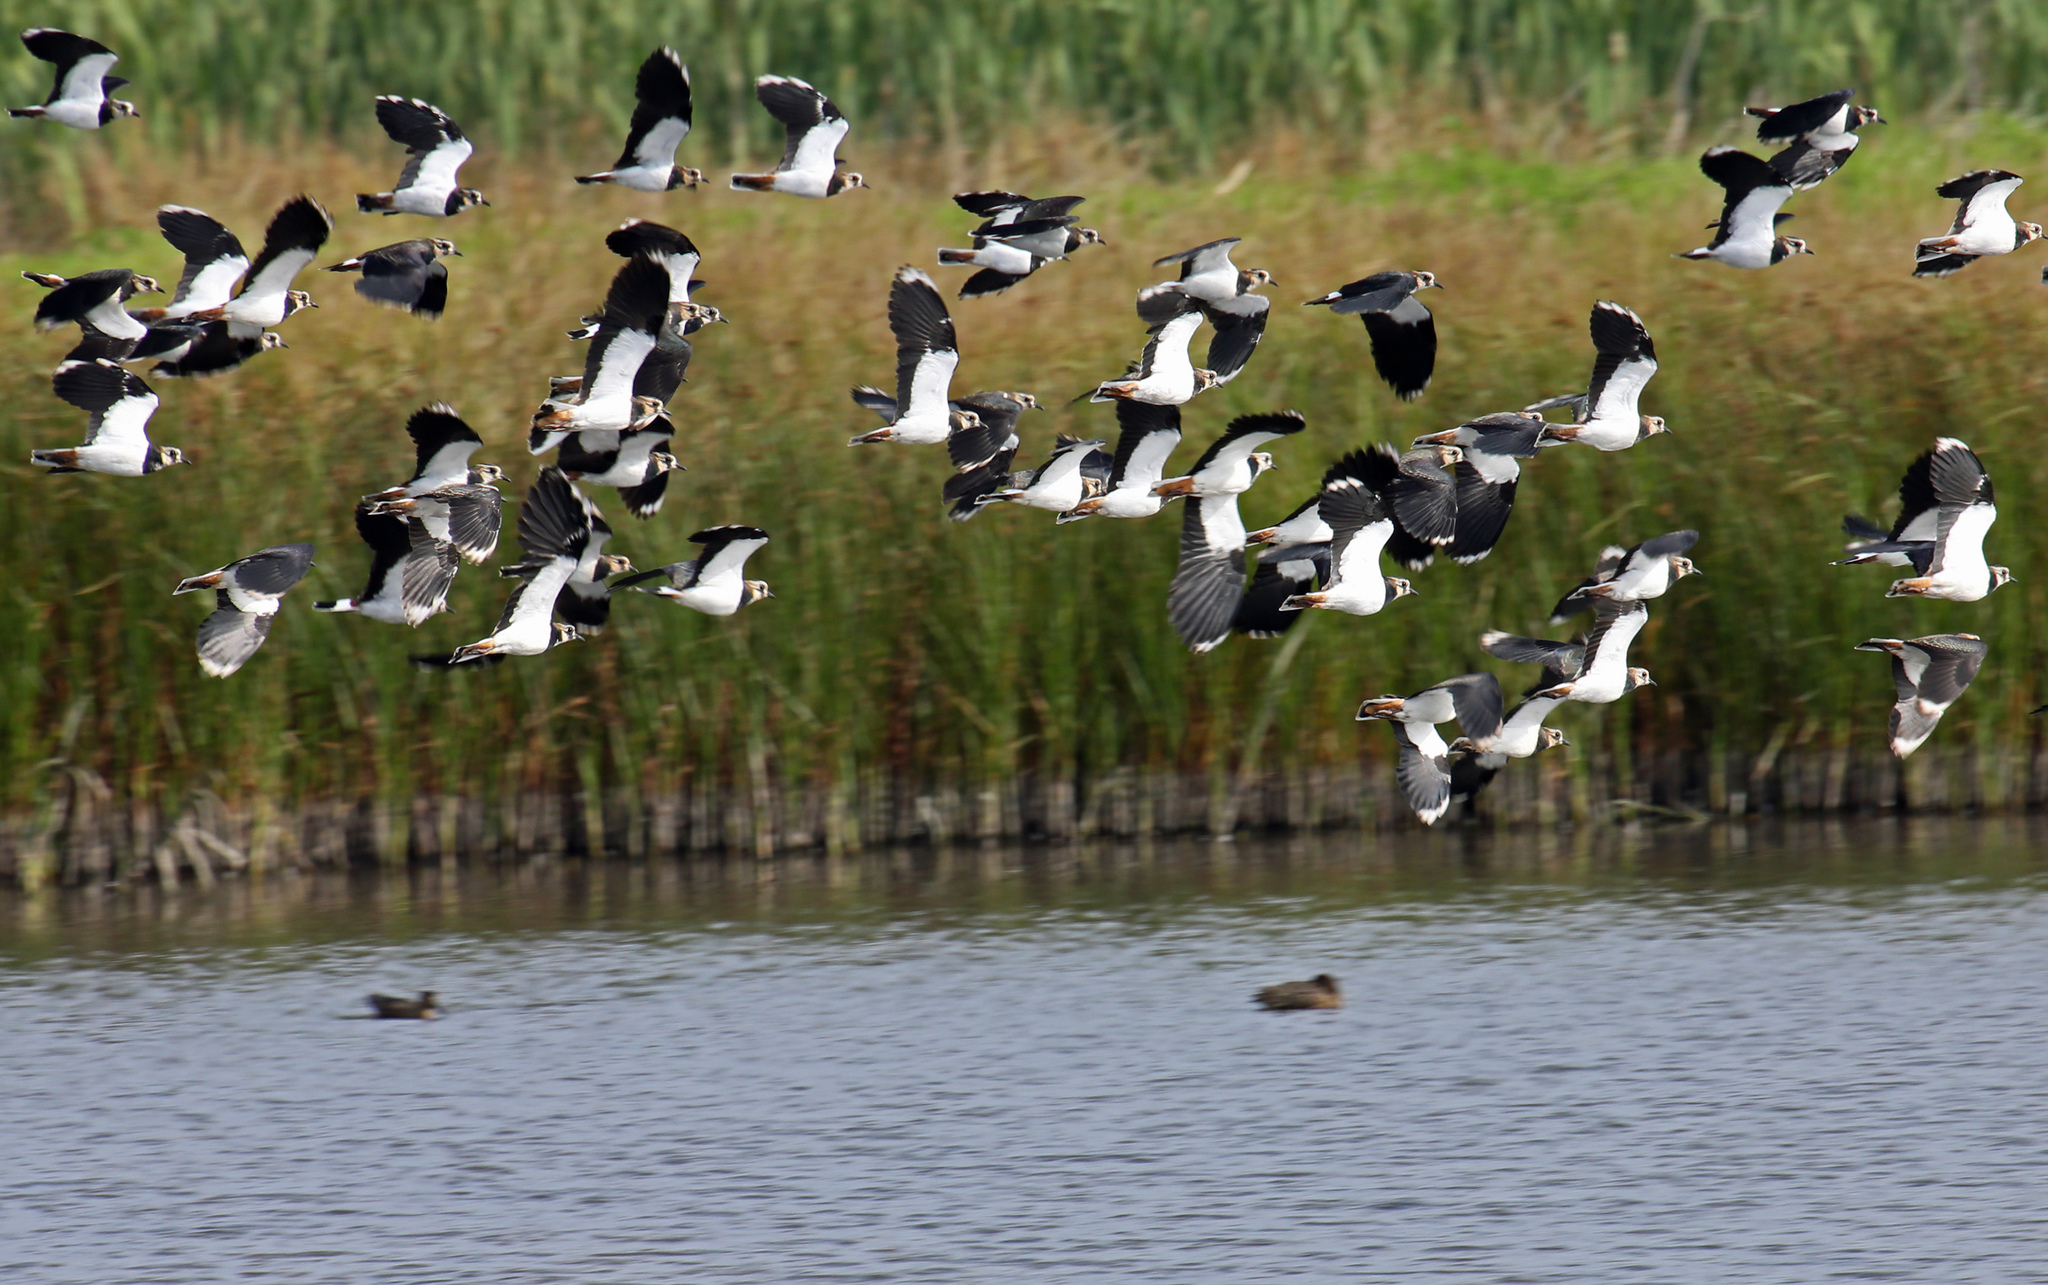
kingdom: Animalia
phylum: Chordata
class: Aves
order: Charadriiformes
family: Charadriidae
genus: Vanellus
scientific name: Vanellus vanellus
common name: Northern lapwing
